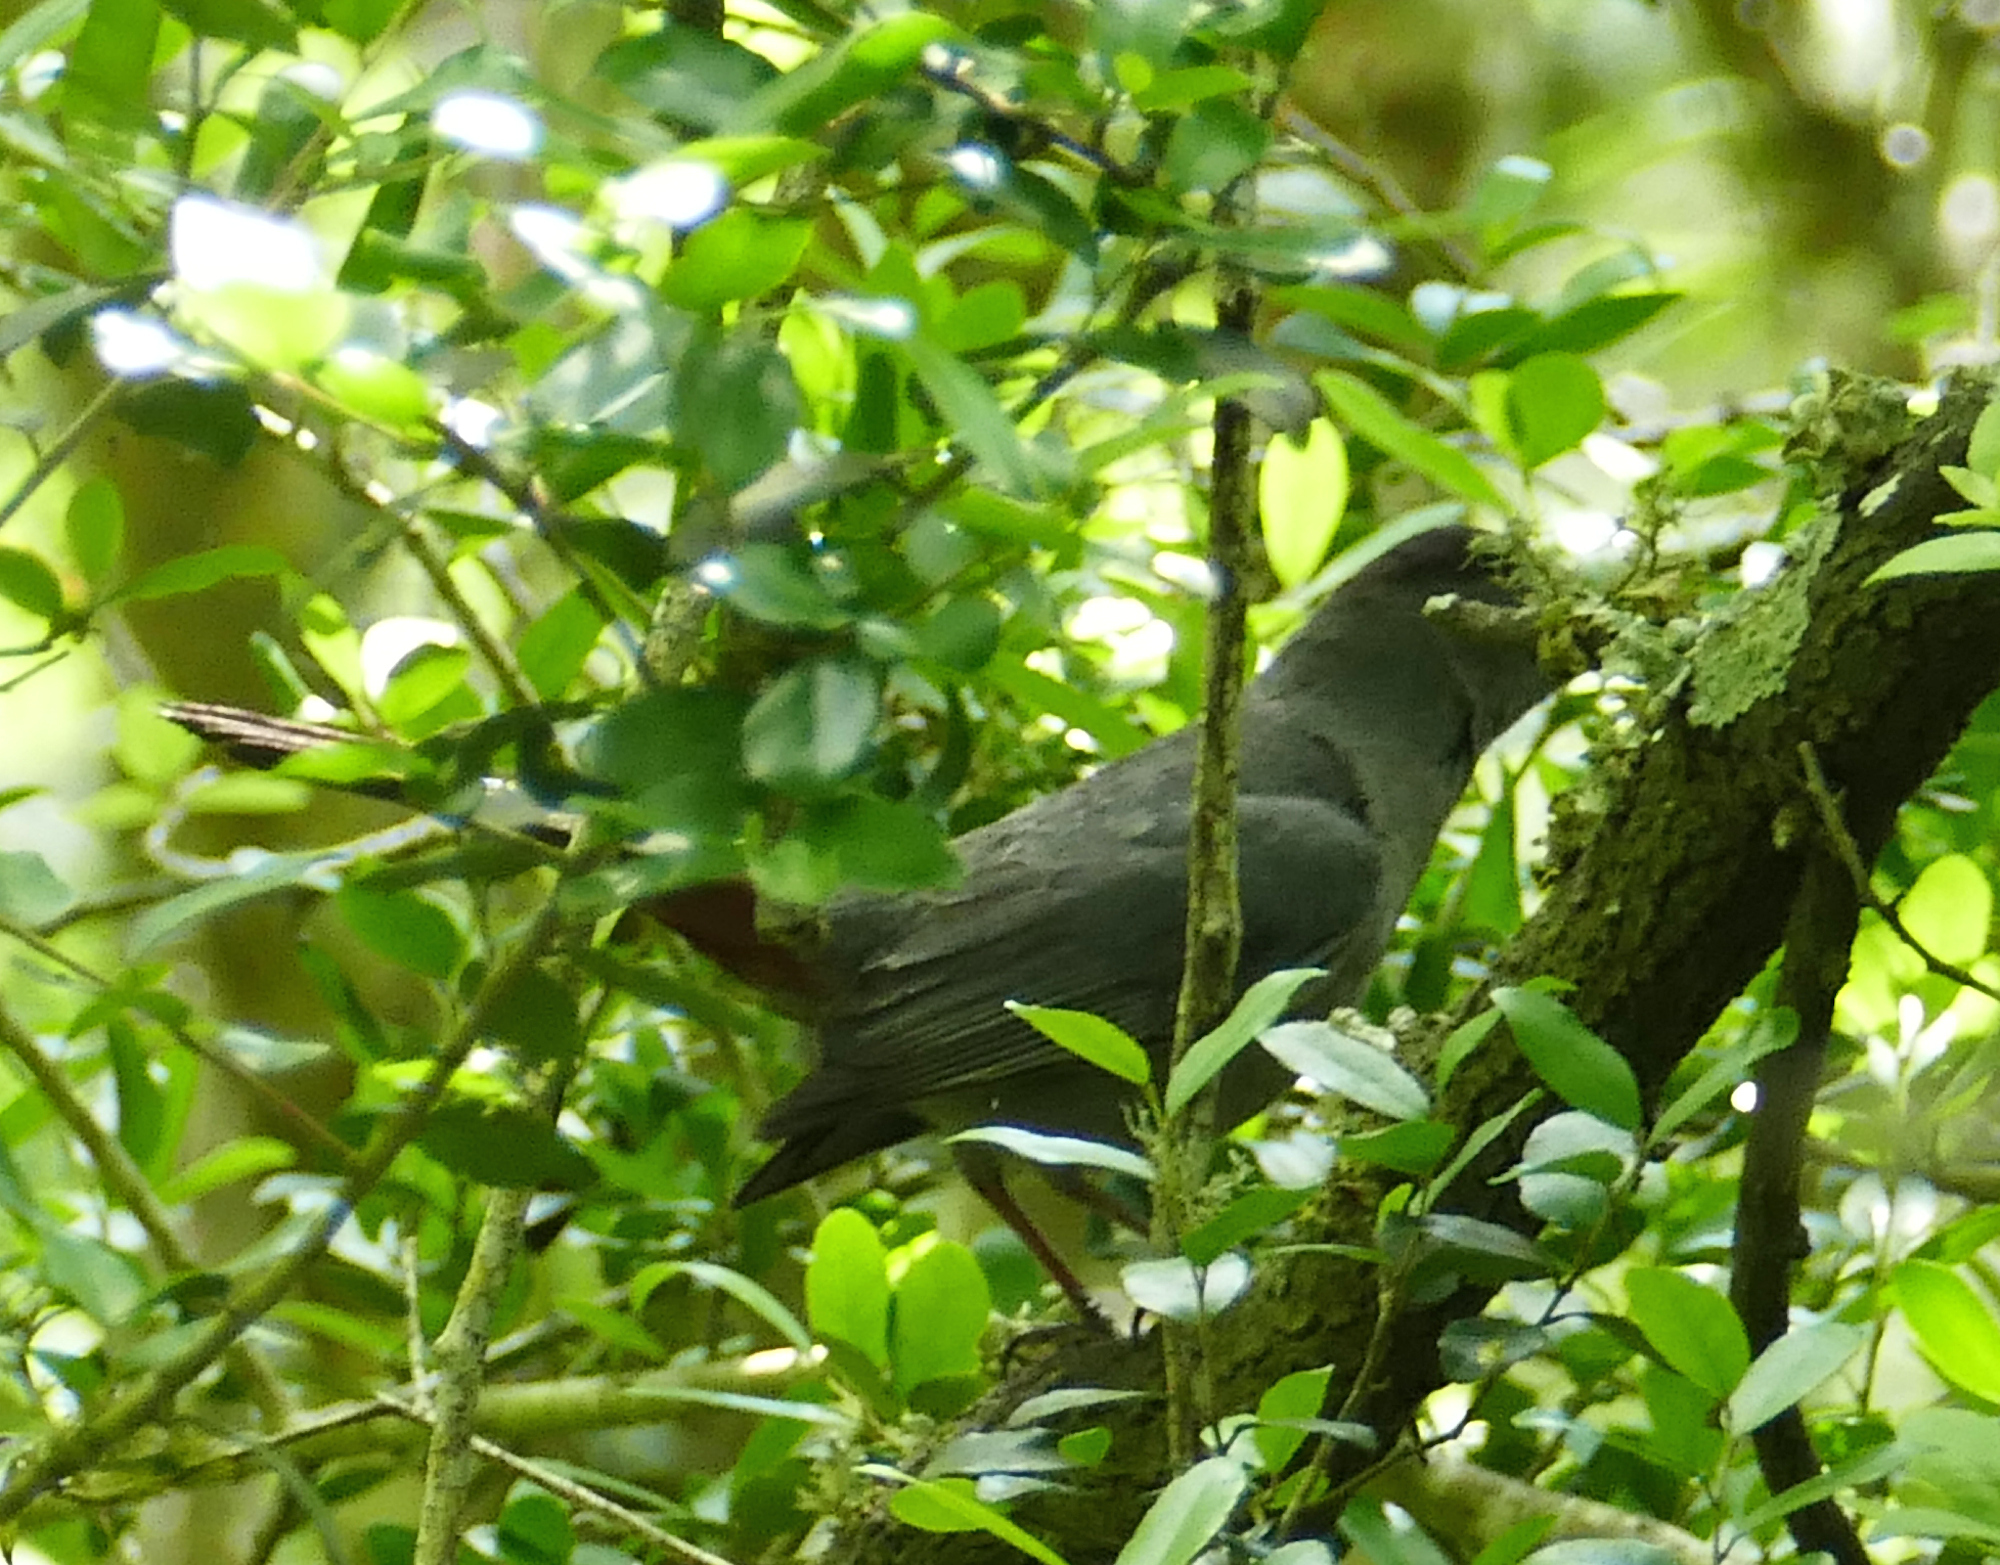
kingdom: Animalia
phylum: Chordata
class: Aves
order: Passeriformes
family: Mimidae
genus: Dumetella
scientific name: Dumetella carolinensis
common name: Gray catbird
